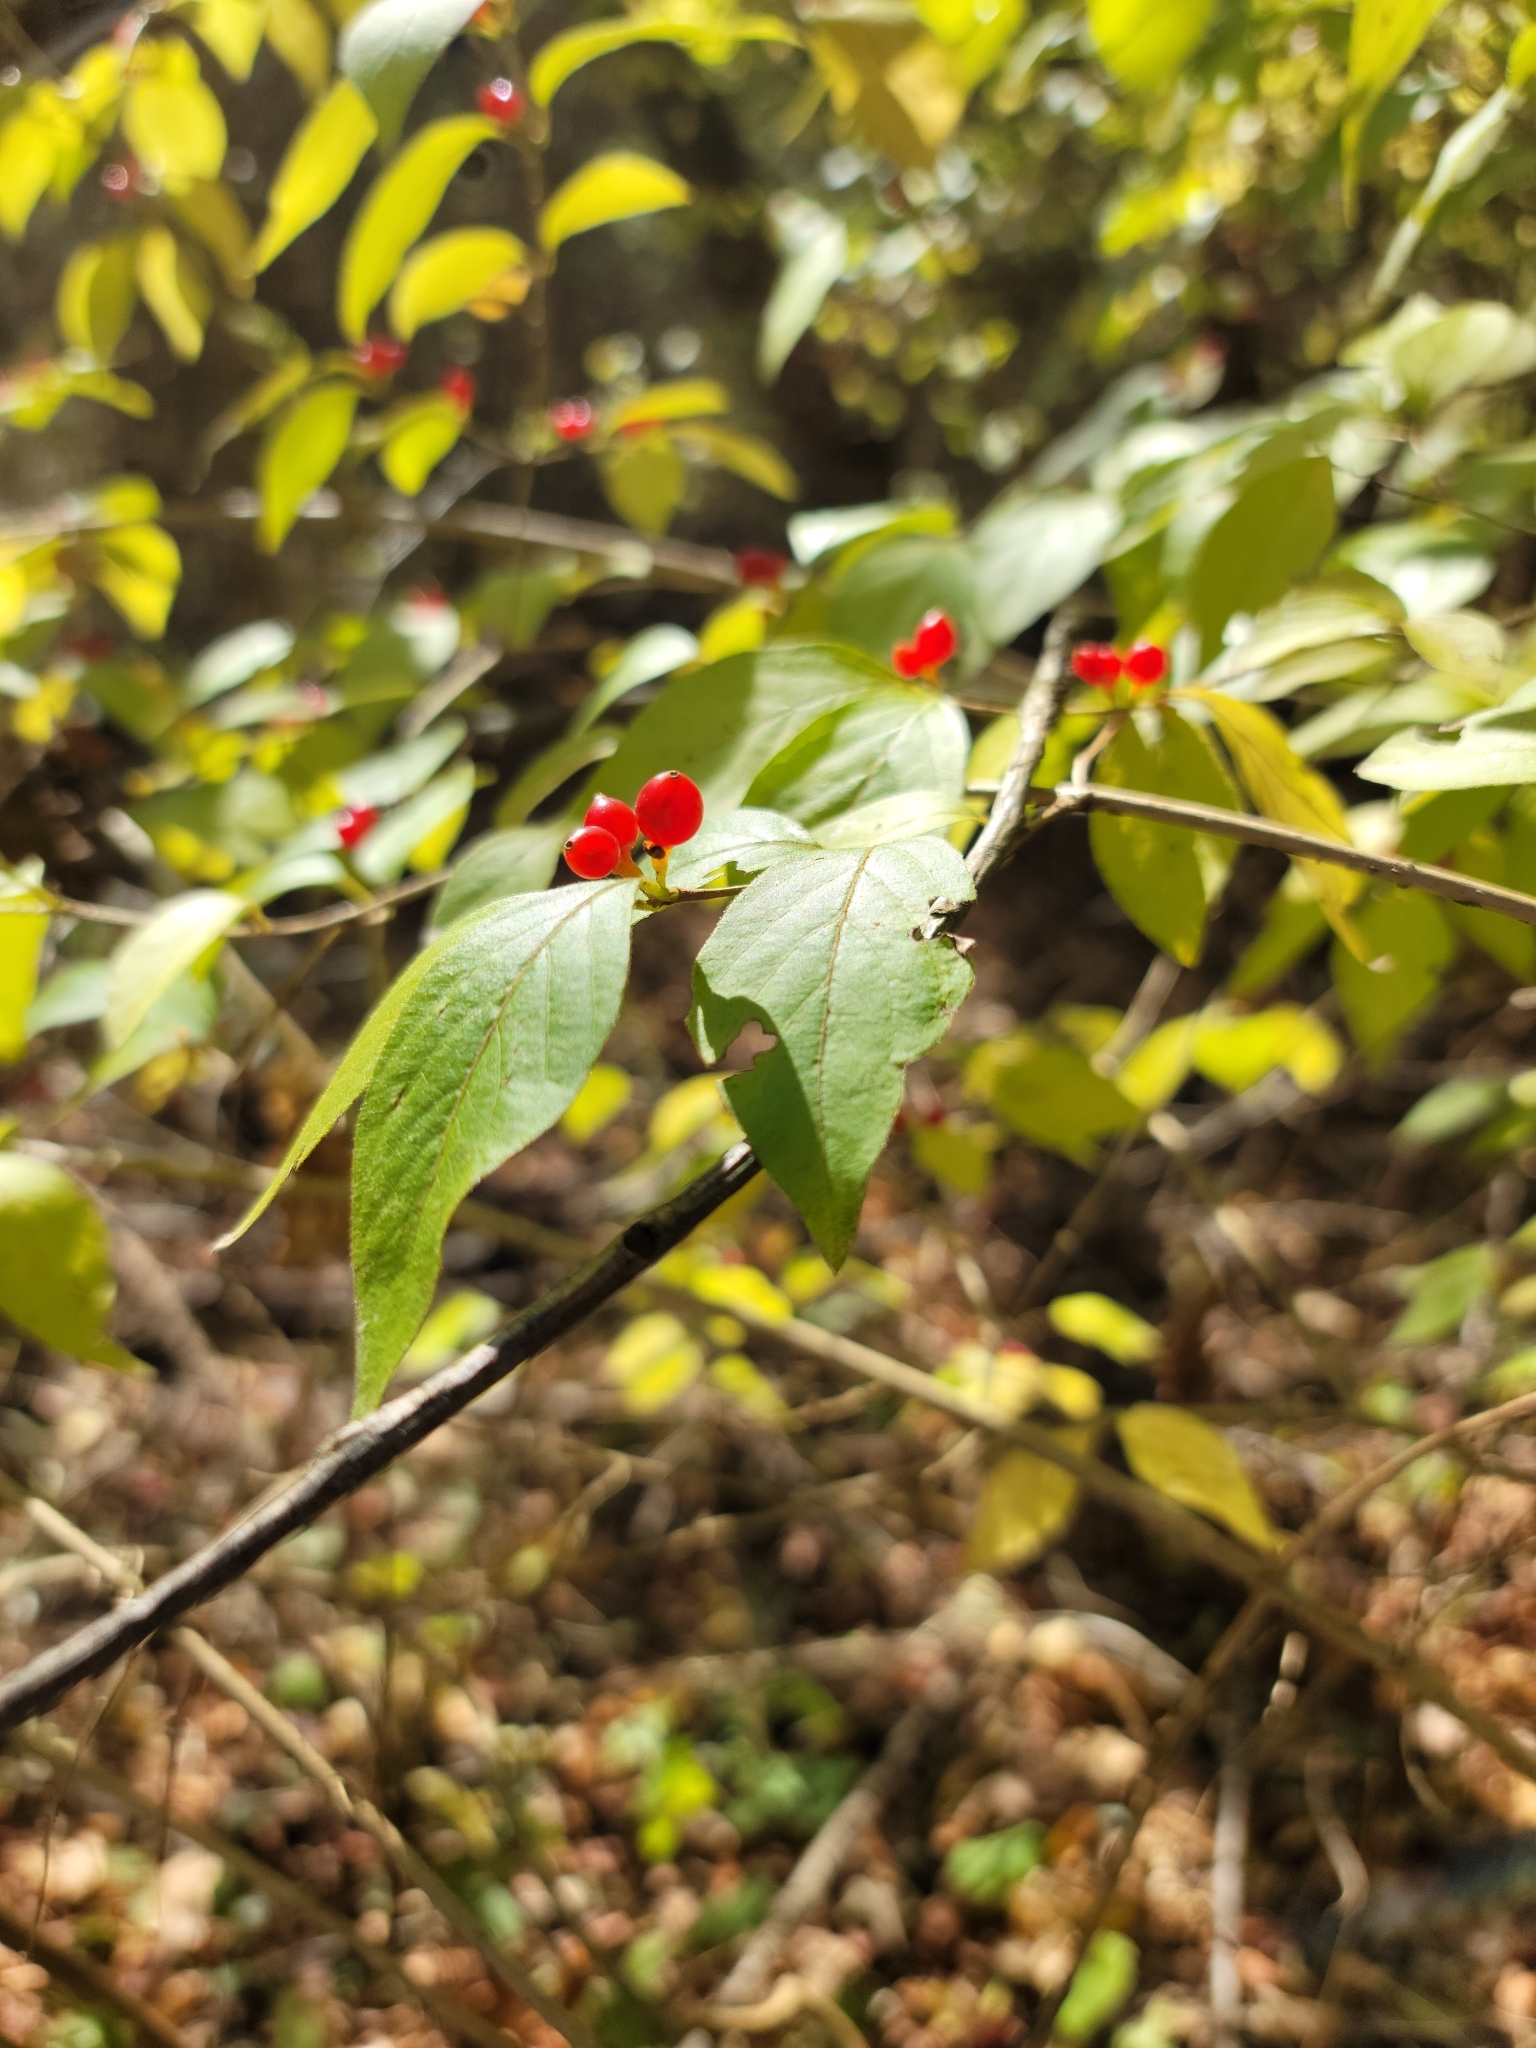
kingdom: Plantae
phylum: Tracheophyta
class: Magnoliopsida
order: Dipsacales
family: Caprifoliaceae
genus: Lonicera
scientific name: Lonicera maackii
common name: Amur honeysuckle
